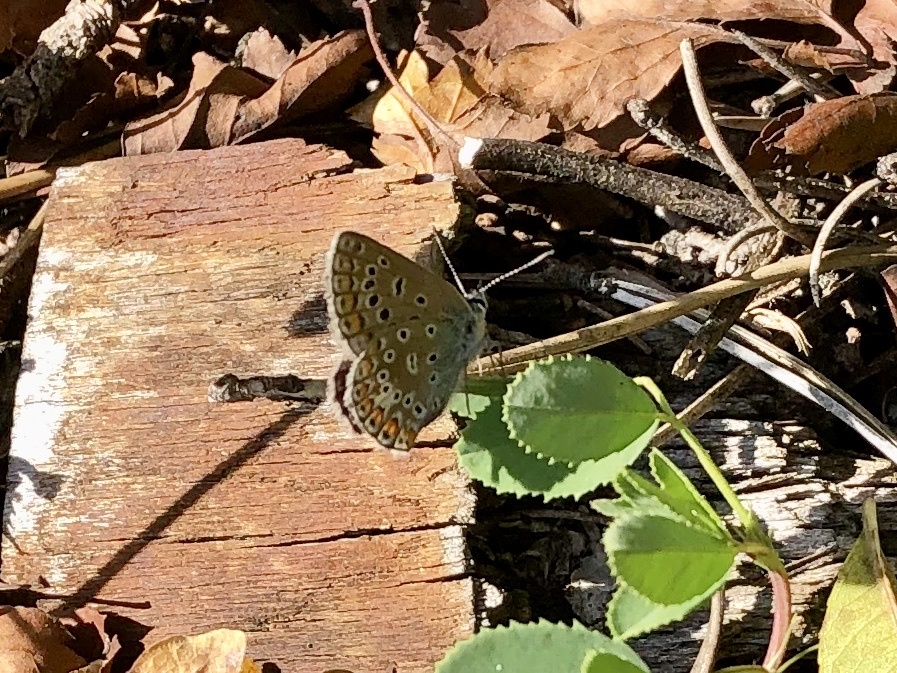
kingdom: Animalia
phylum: Arthropoda
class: Insecta
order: Lepidoptera
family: Lycaenidae
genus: Polyommatus
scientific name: Polyommatus icarus
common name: Common blue
